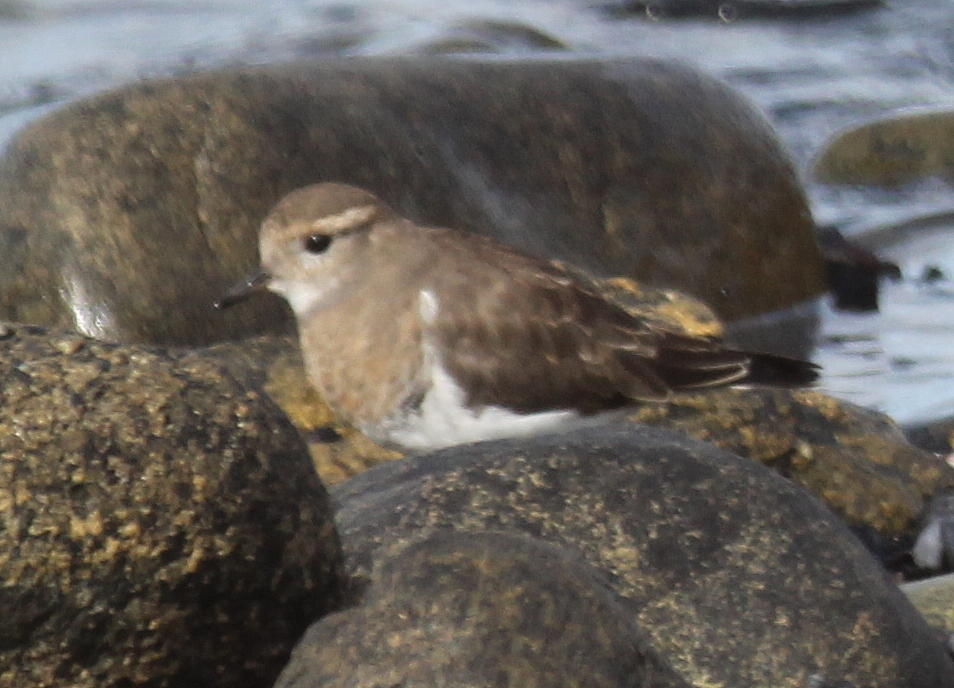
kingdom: Animalia
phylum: Chordata
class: Aves
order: Charadriiformes
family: Charadriidae
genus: Charadrius
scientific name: Charadrius modestus
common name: Rufous-chested plover
